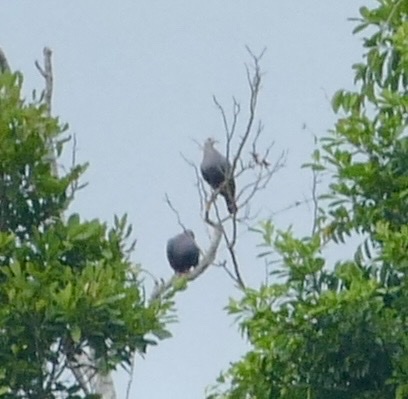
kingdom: Animalia
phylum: Chordata
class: Aves
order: Columbiformes
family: Columbidae
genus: Ducula
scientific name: Ducula pinon
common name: Pinon's imperial pigeon
